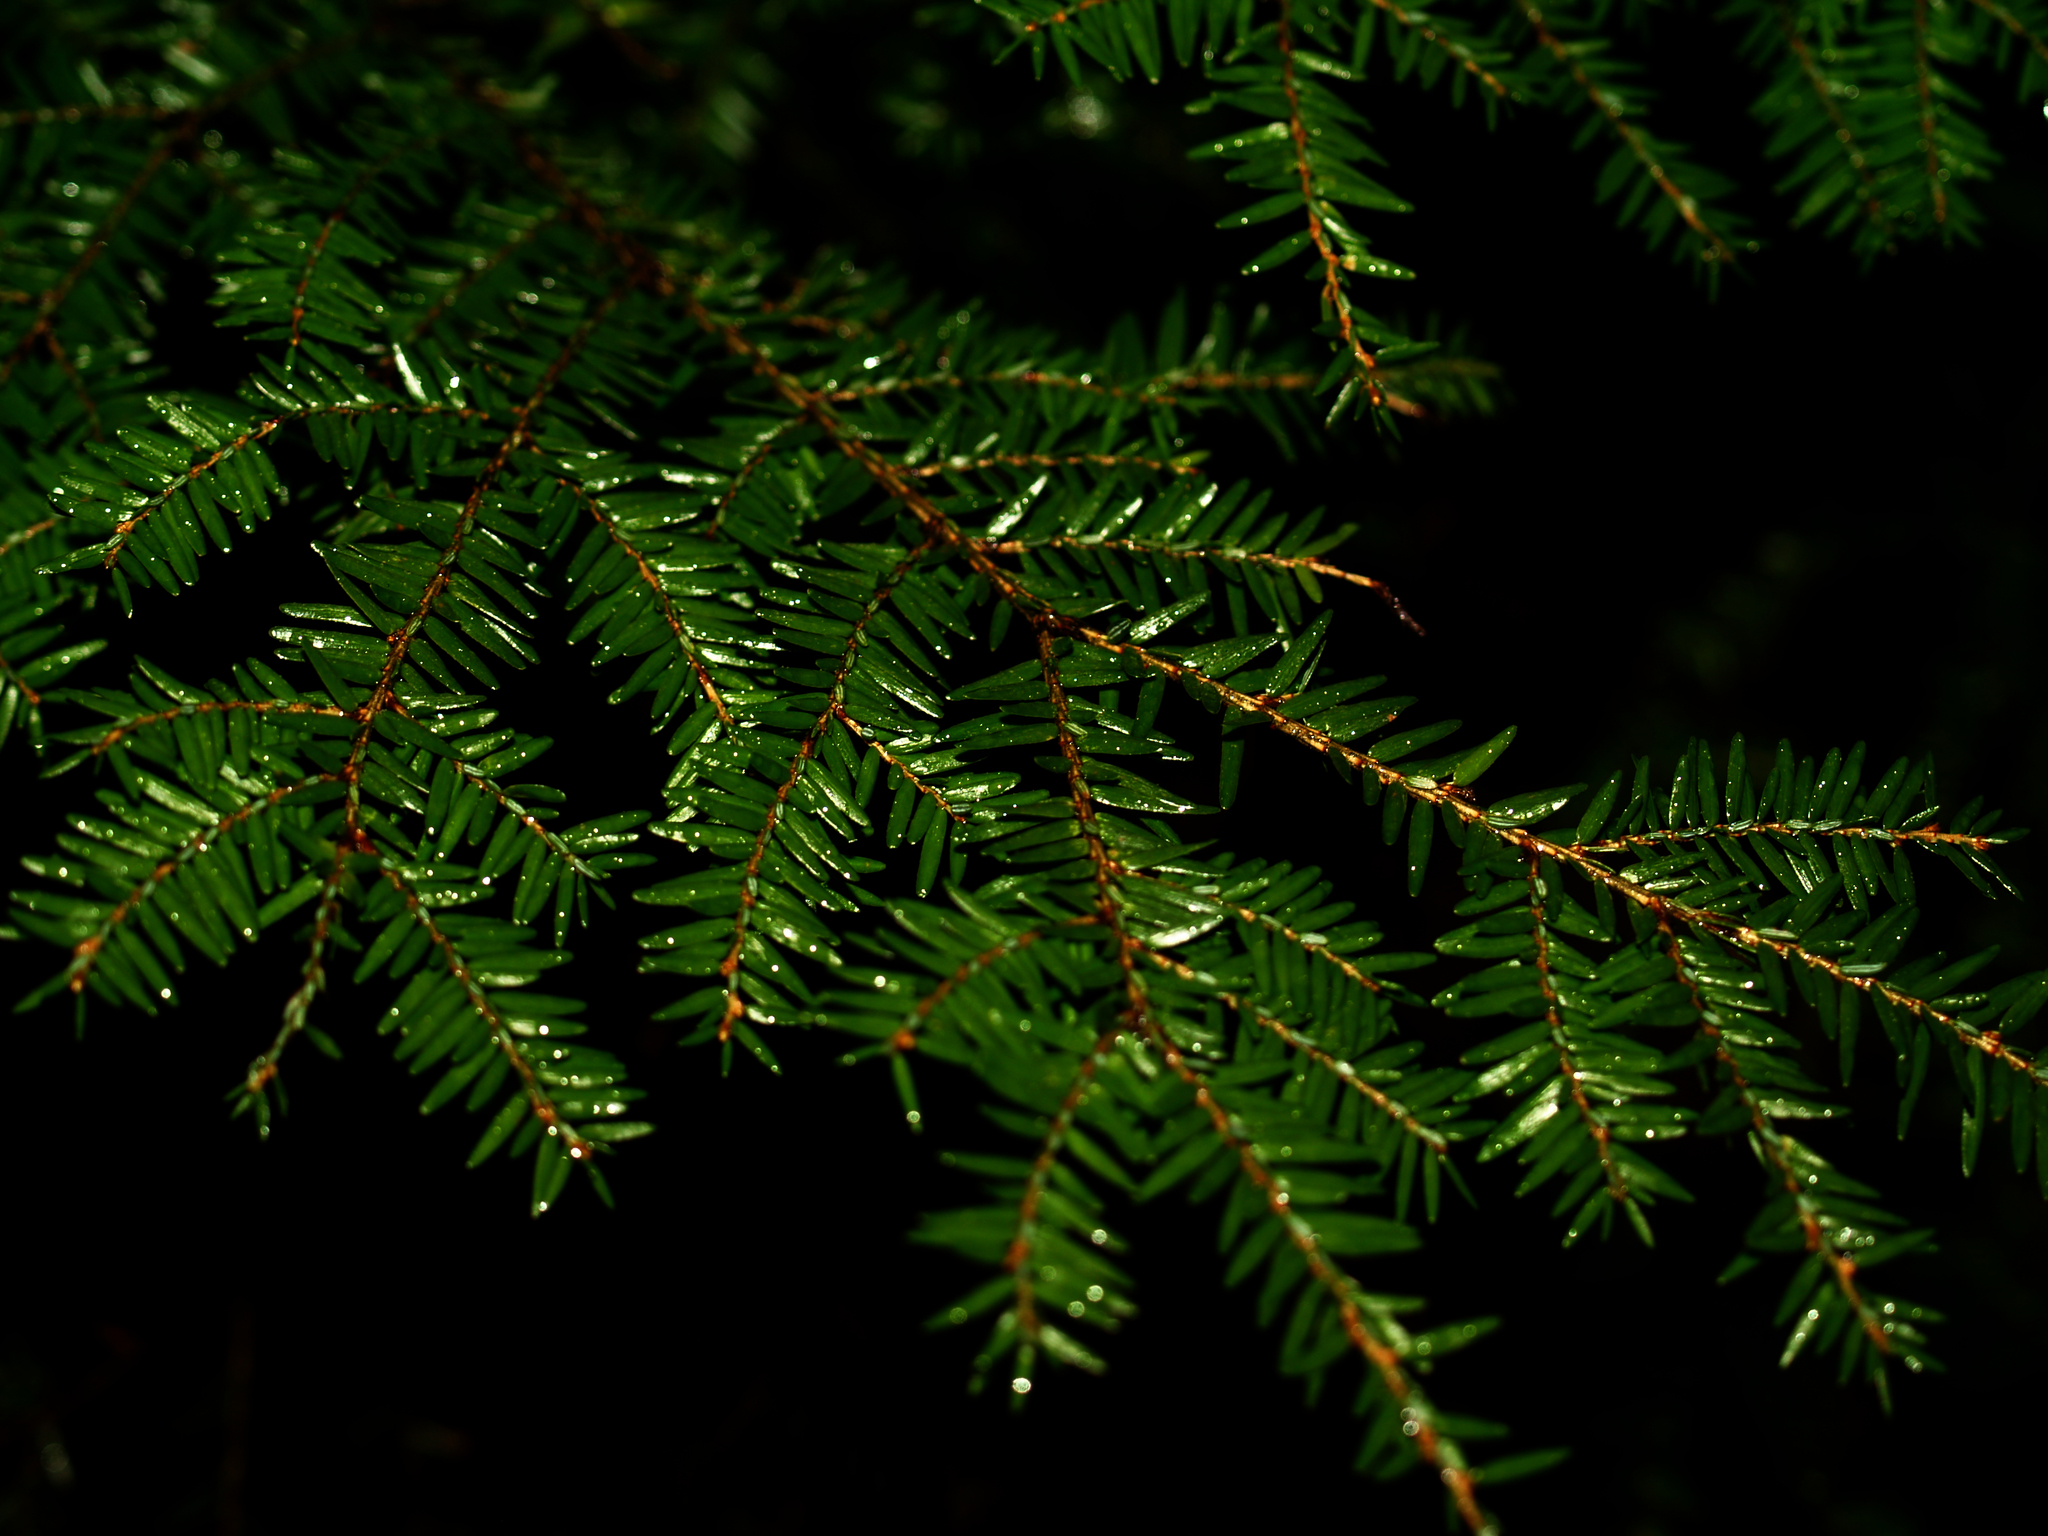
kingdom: Plantae
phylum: Tracheophyta
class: Pinopsida
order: Pinales
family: Pinaceae
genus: Tsuga
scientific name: Tsuga canadensis
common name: Eastern hemlock
